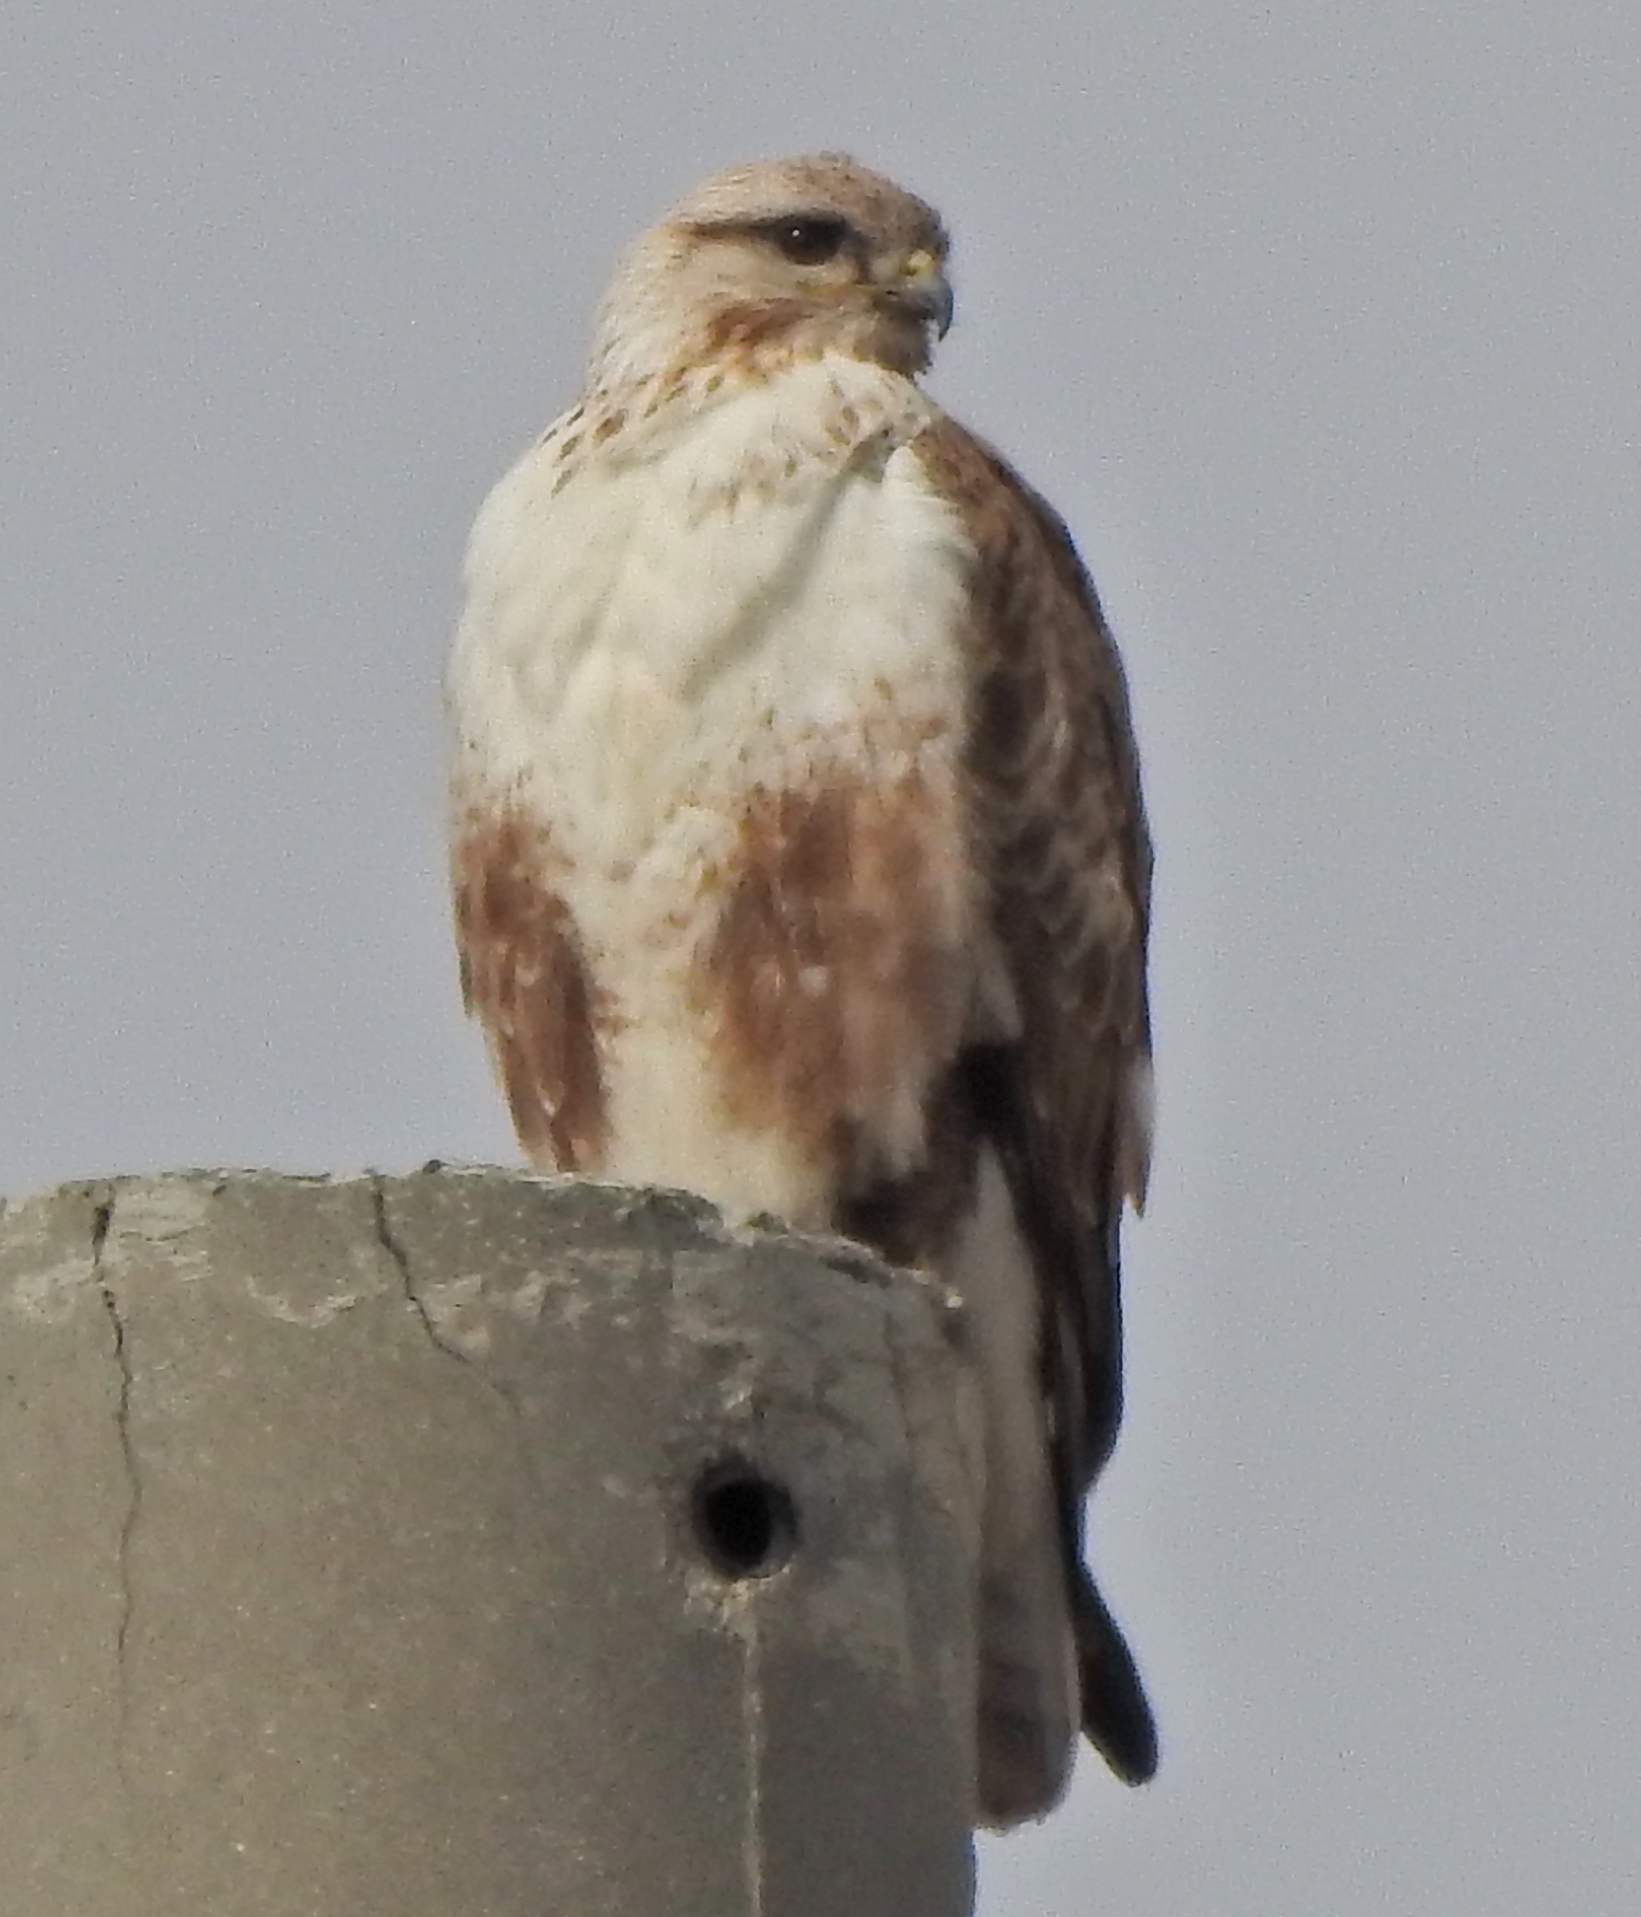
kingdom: Animalia
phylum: Chordata
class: Aves
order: Accipitriformes
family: Accipitridae
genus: Buteo
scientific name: Buteo hemilasius
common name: Upland buzzard
